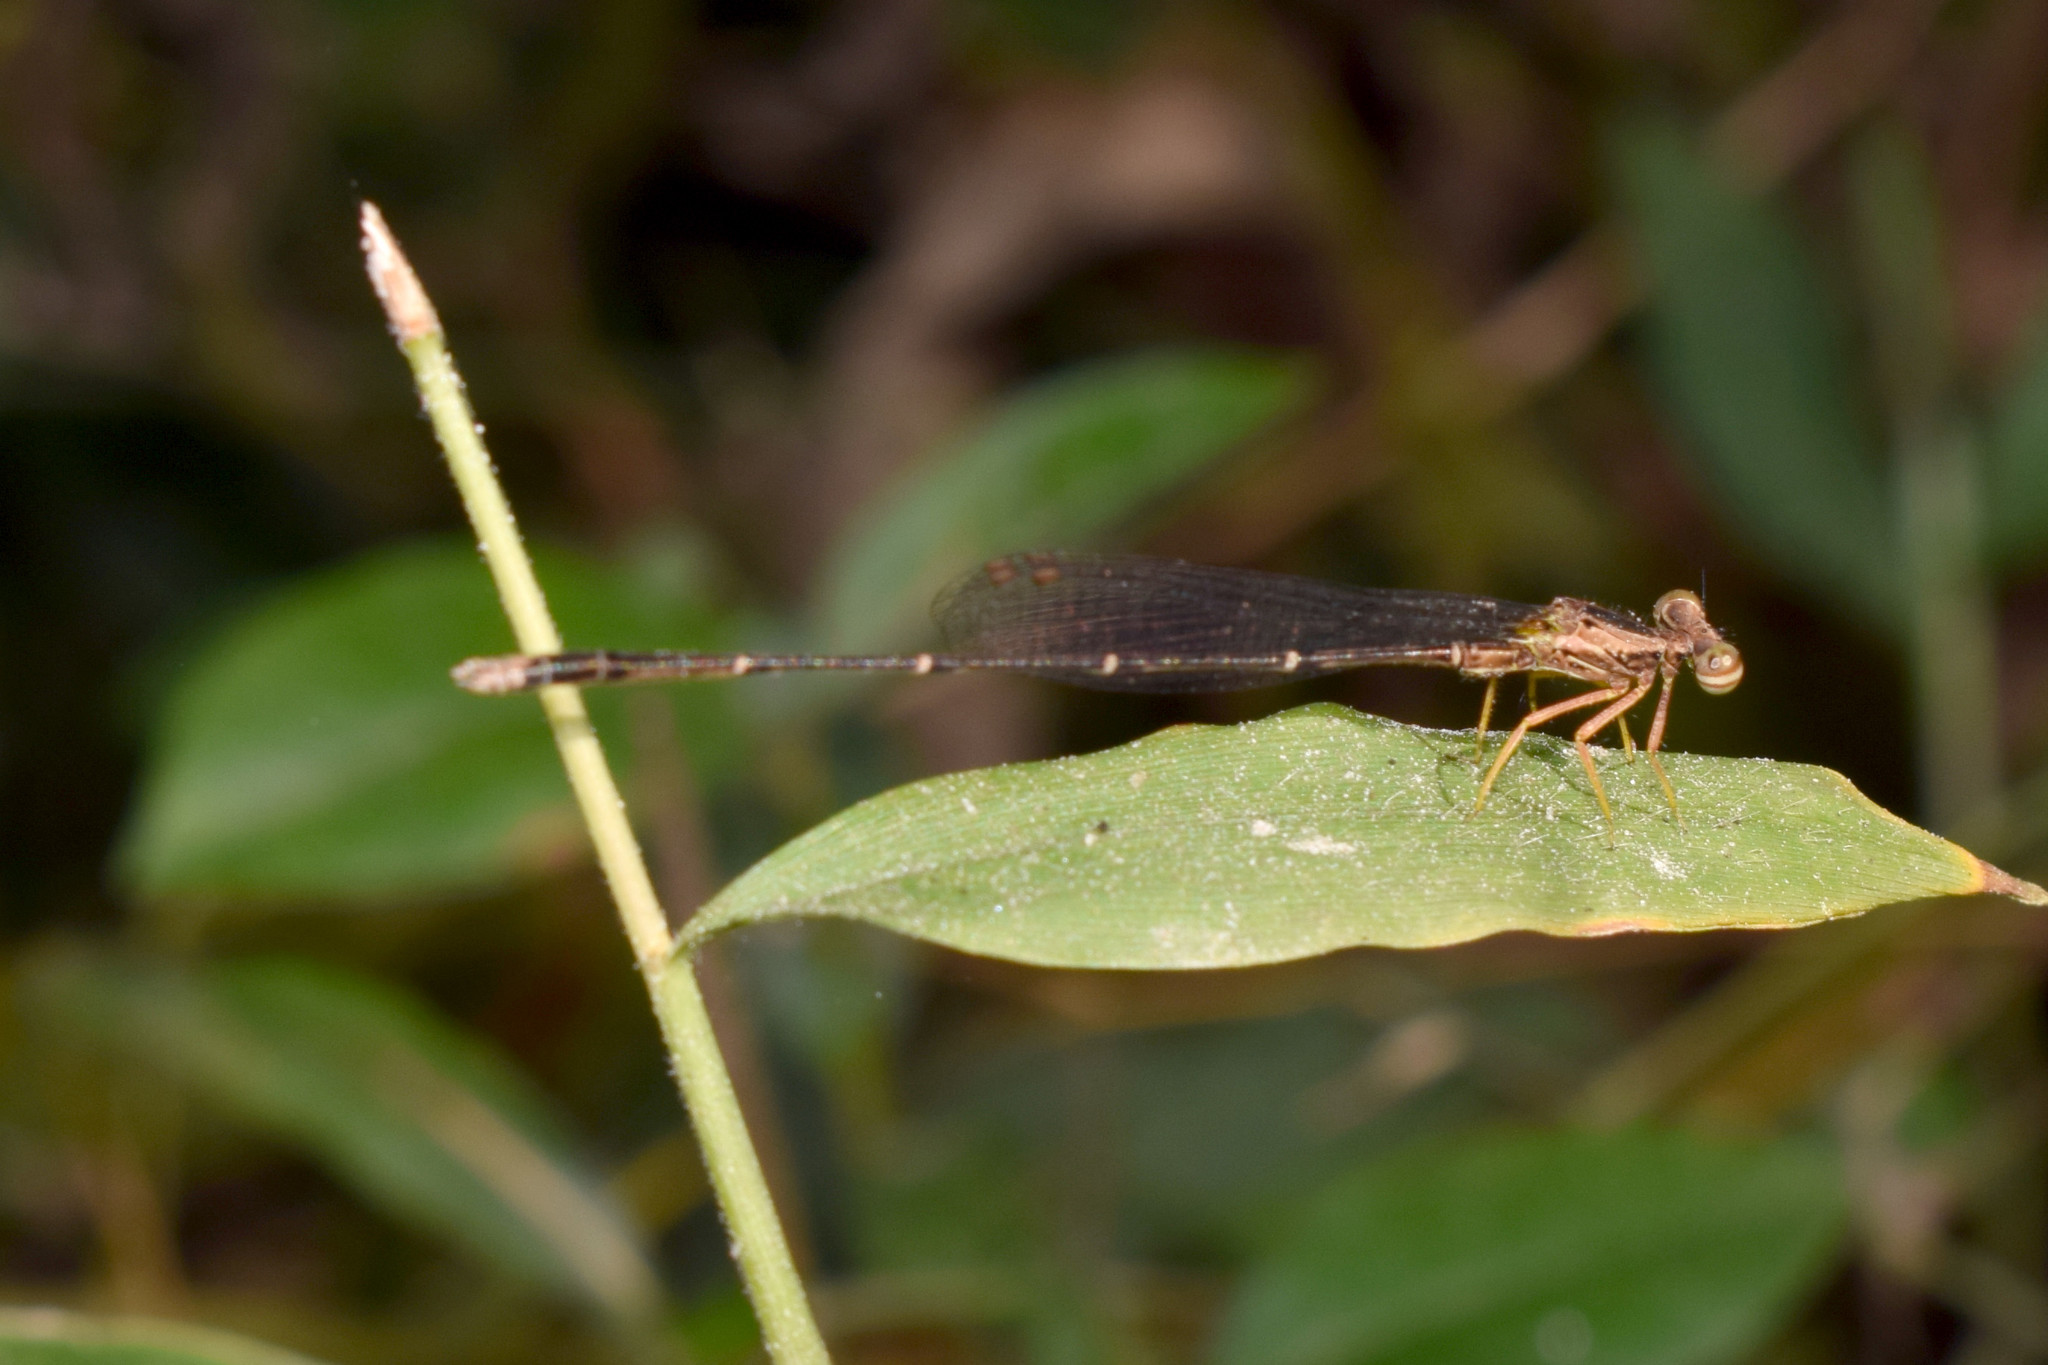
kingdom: Animalia
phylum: Arthropoda
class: Insecta
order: Odonata
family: Platycnemididae
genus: Copera
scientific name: Copera vittata
